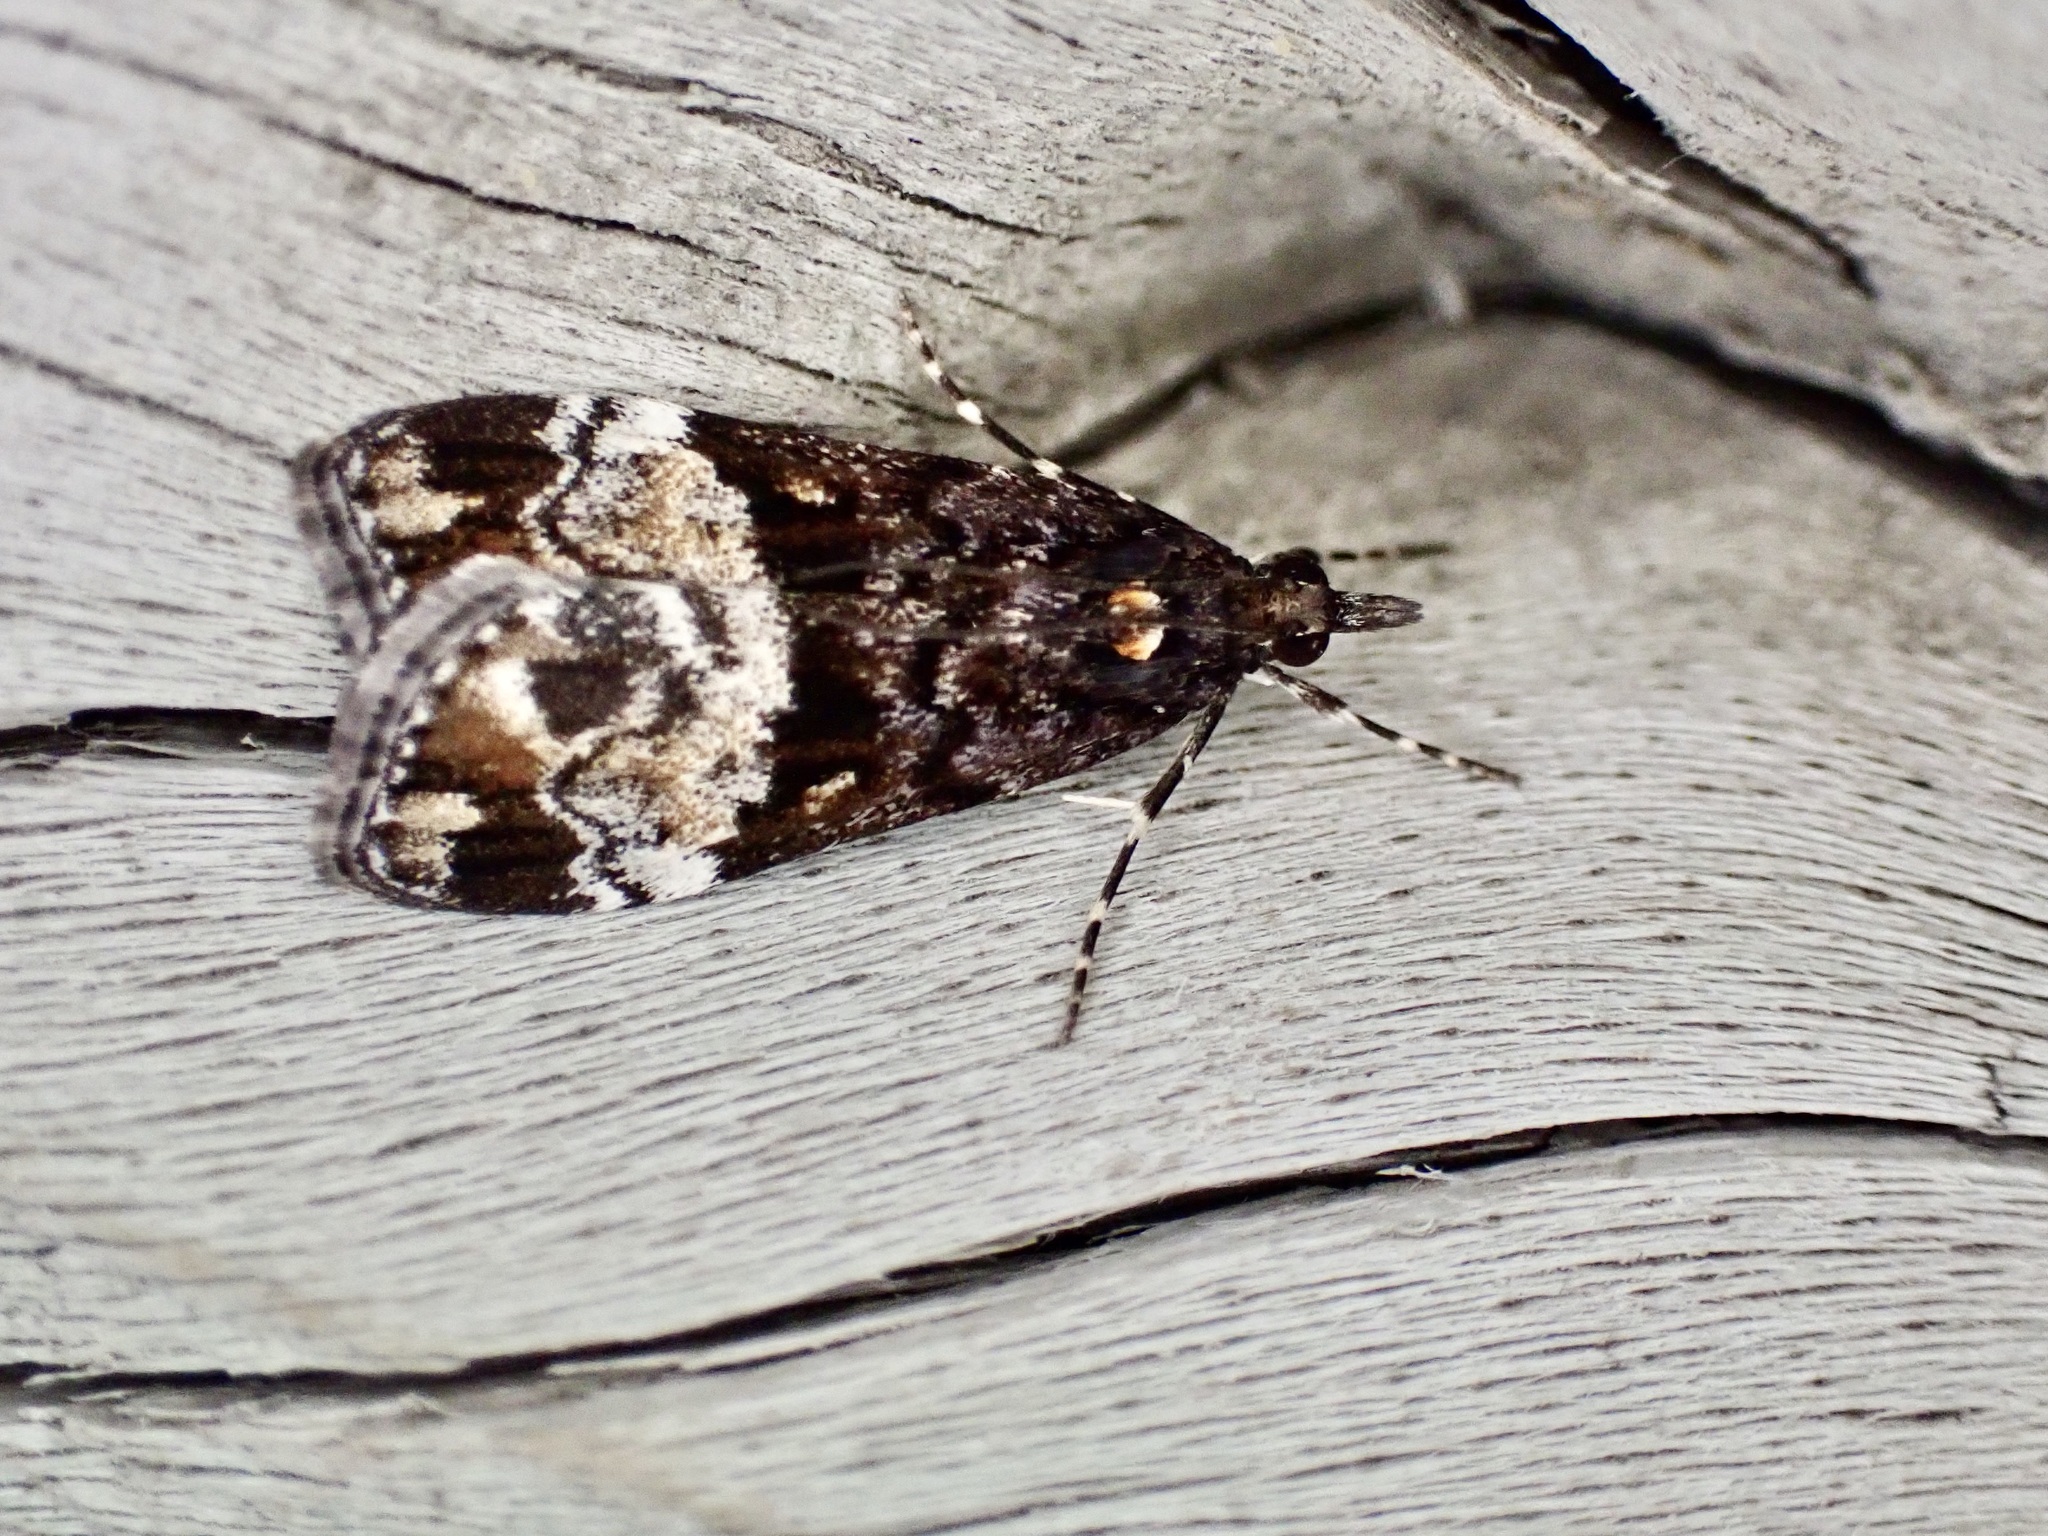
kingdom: Animalia
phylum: Arthropoda
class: Insecta
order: Lepidoptera
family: Crambidae
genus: Scoparia
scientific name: Scoparia minusculalis
